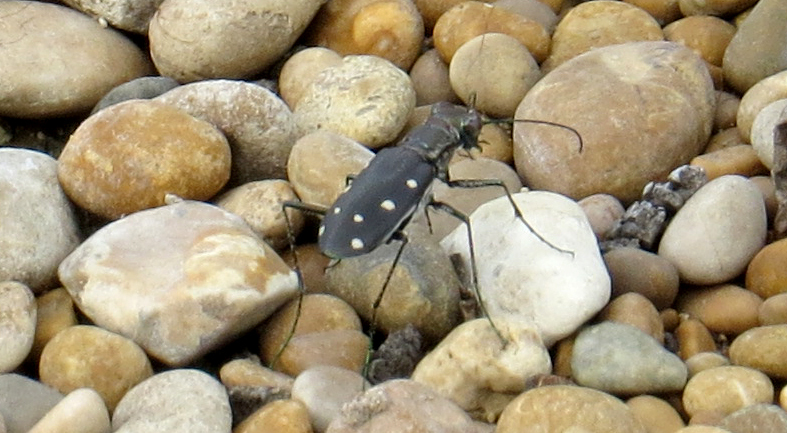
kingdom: Animalia
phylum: Arthropoda
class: Insecta
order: Coleoptera
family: Carabidae
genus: Cicindela
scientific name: Cicindela ocellata
